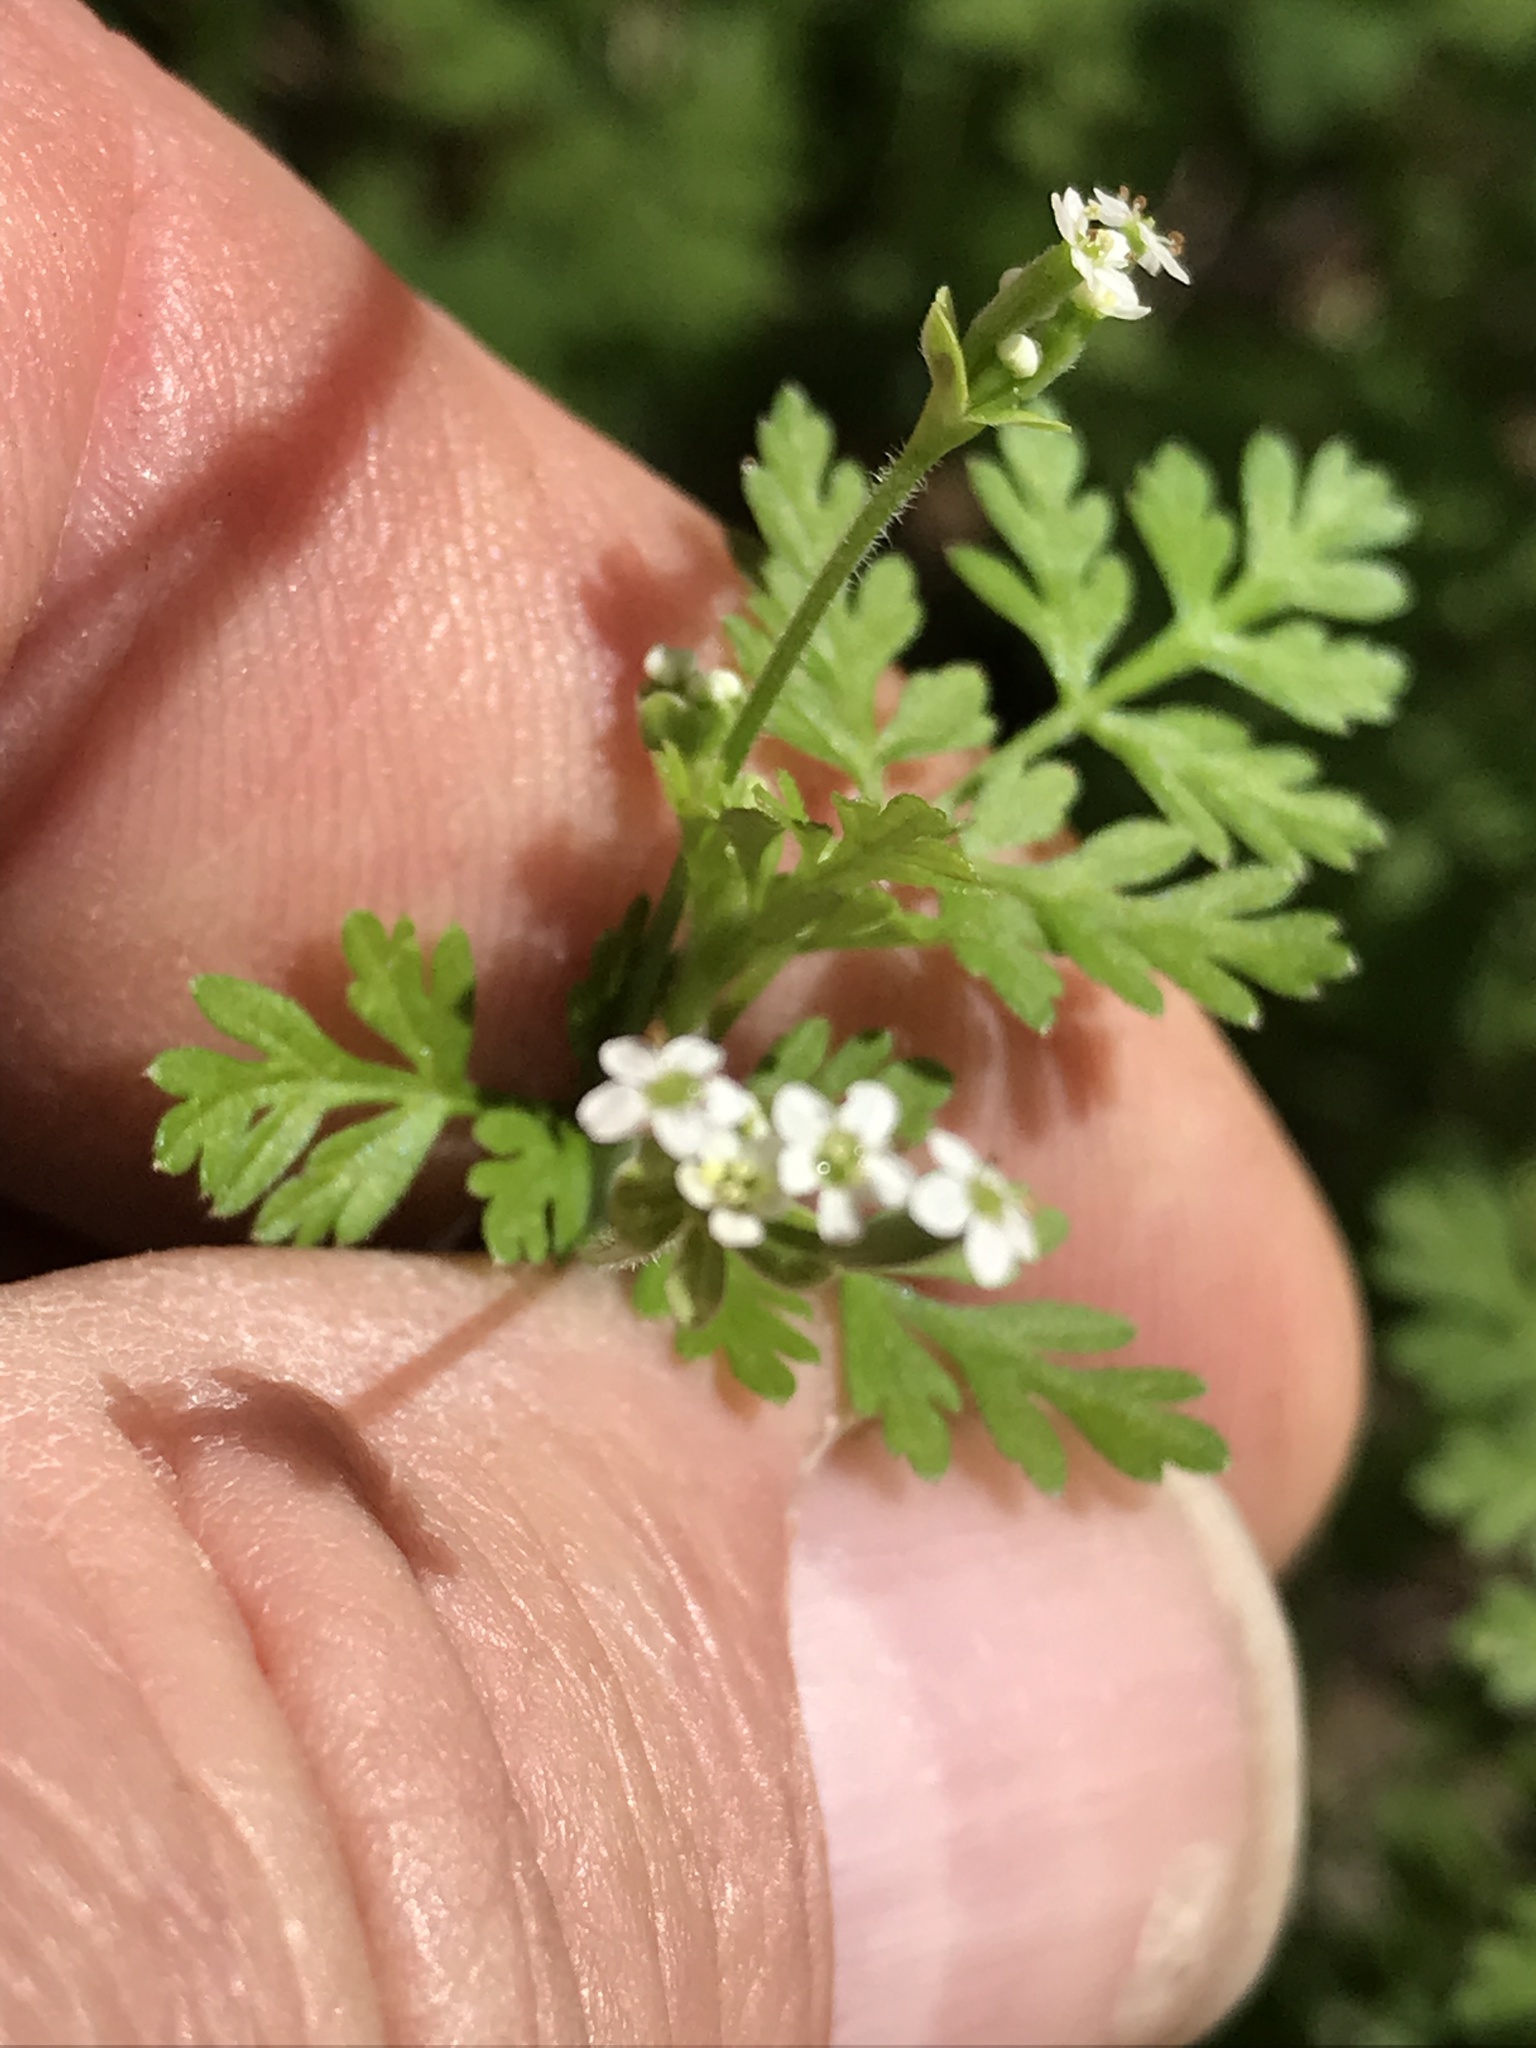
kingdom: Plantae
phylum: Tracheophyta
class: Magnoliopsida
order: Apiales
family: Apiaceae
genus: Chaerophyllum
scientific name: Chaerophyllum tainturieri
